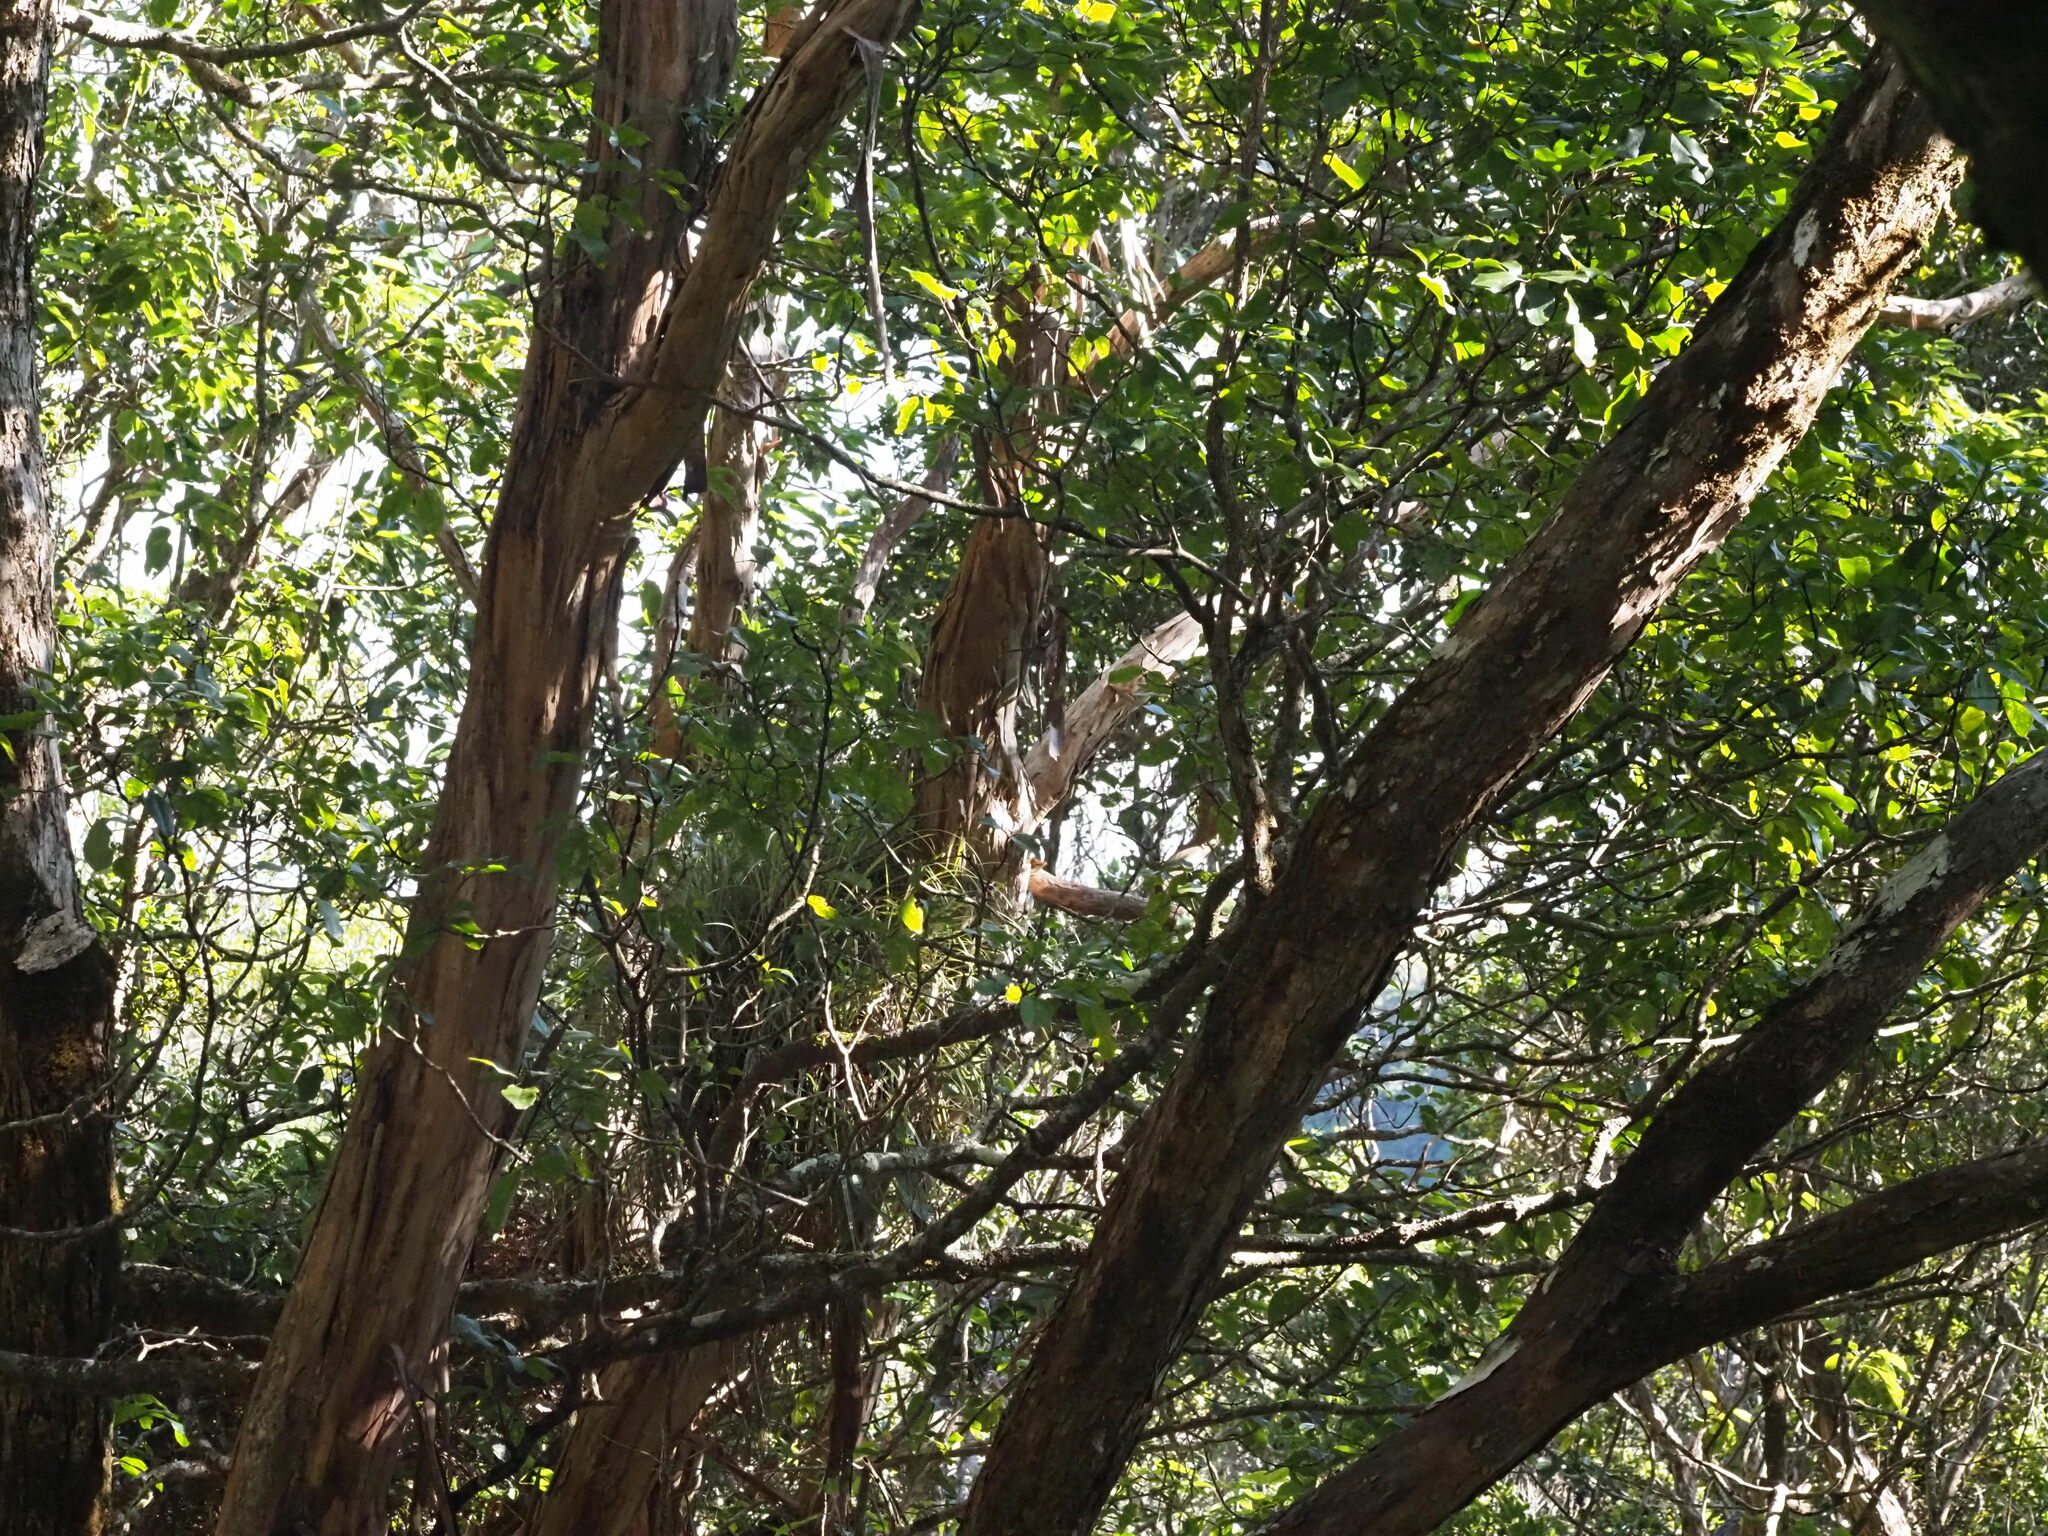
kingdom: Plantae
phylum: Tracheophyta
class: Liliopsida
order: Asparagales
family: Asteliaceae
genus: Astelia
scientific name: Astelia argyrocoma
